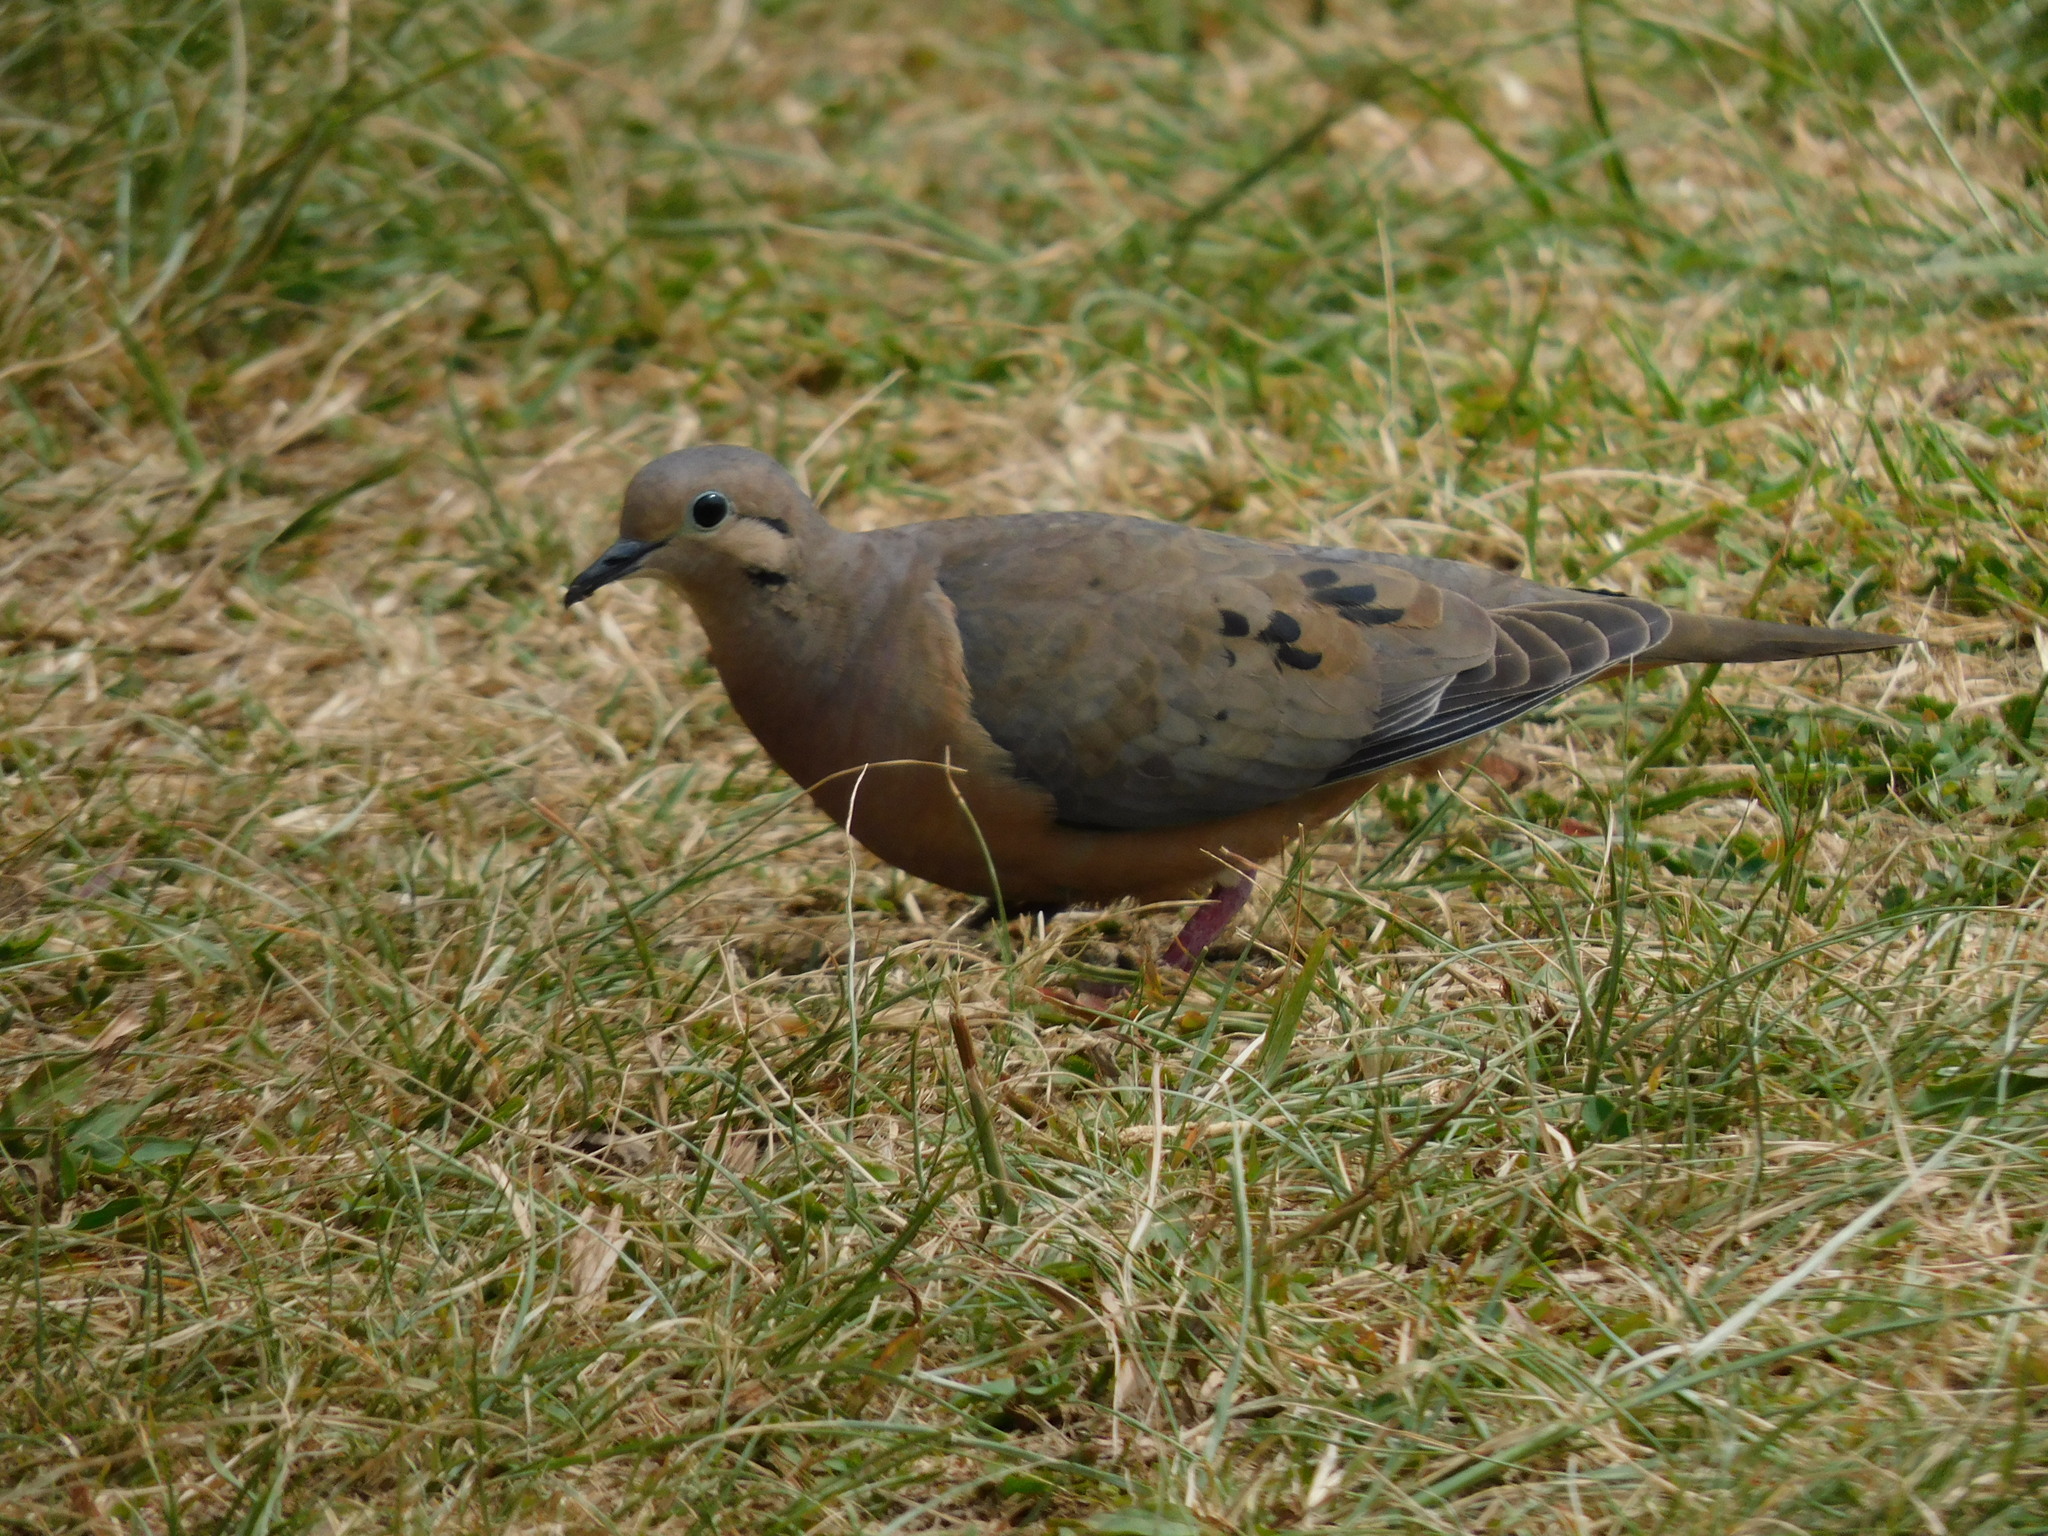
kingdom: Animalia
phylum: Chordata
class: Aves
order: Columbiformes
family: Columbidae
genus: Zenaida
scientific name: Zenaida auriculata
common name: Eared dove
